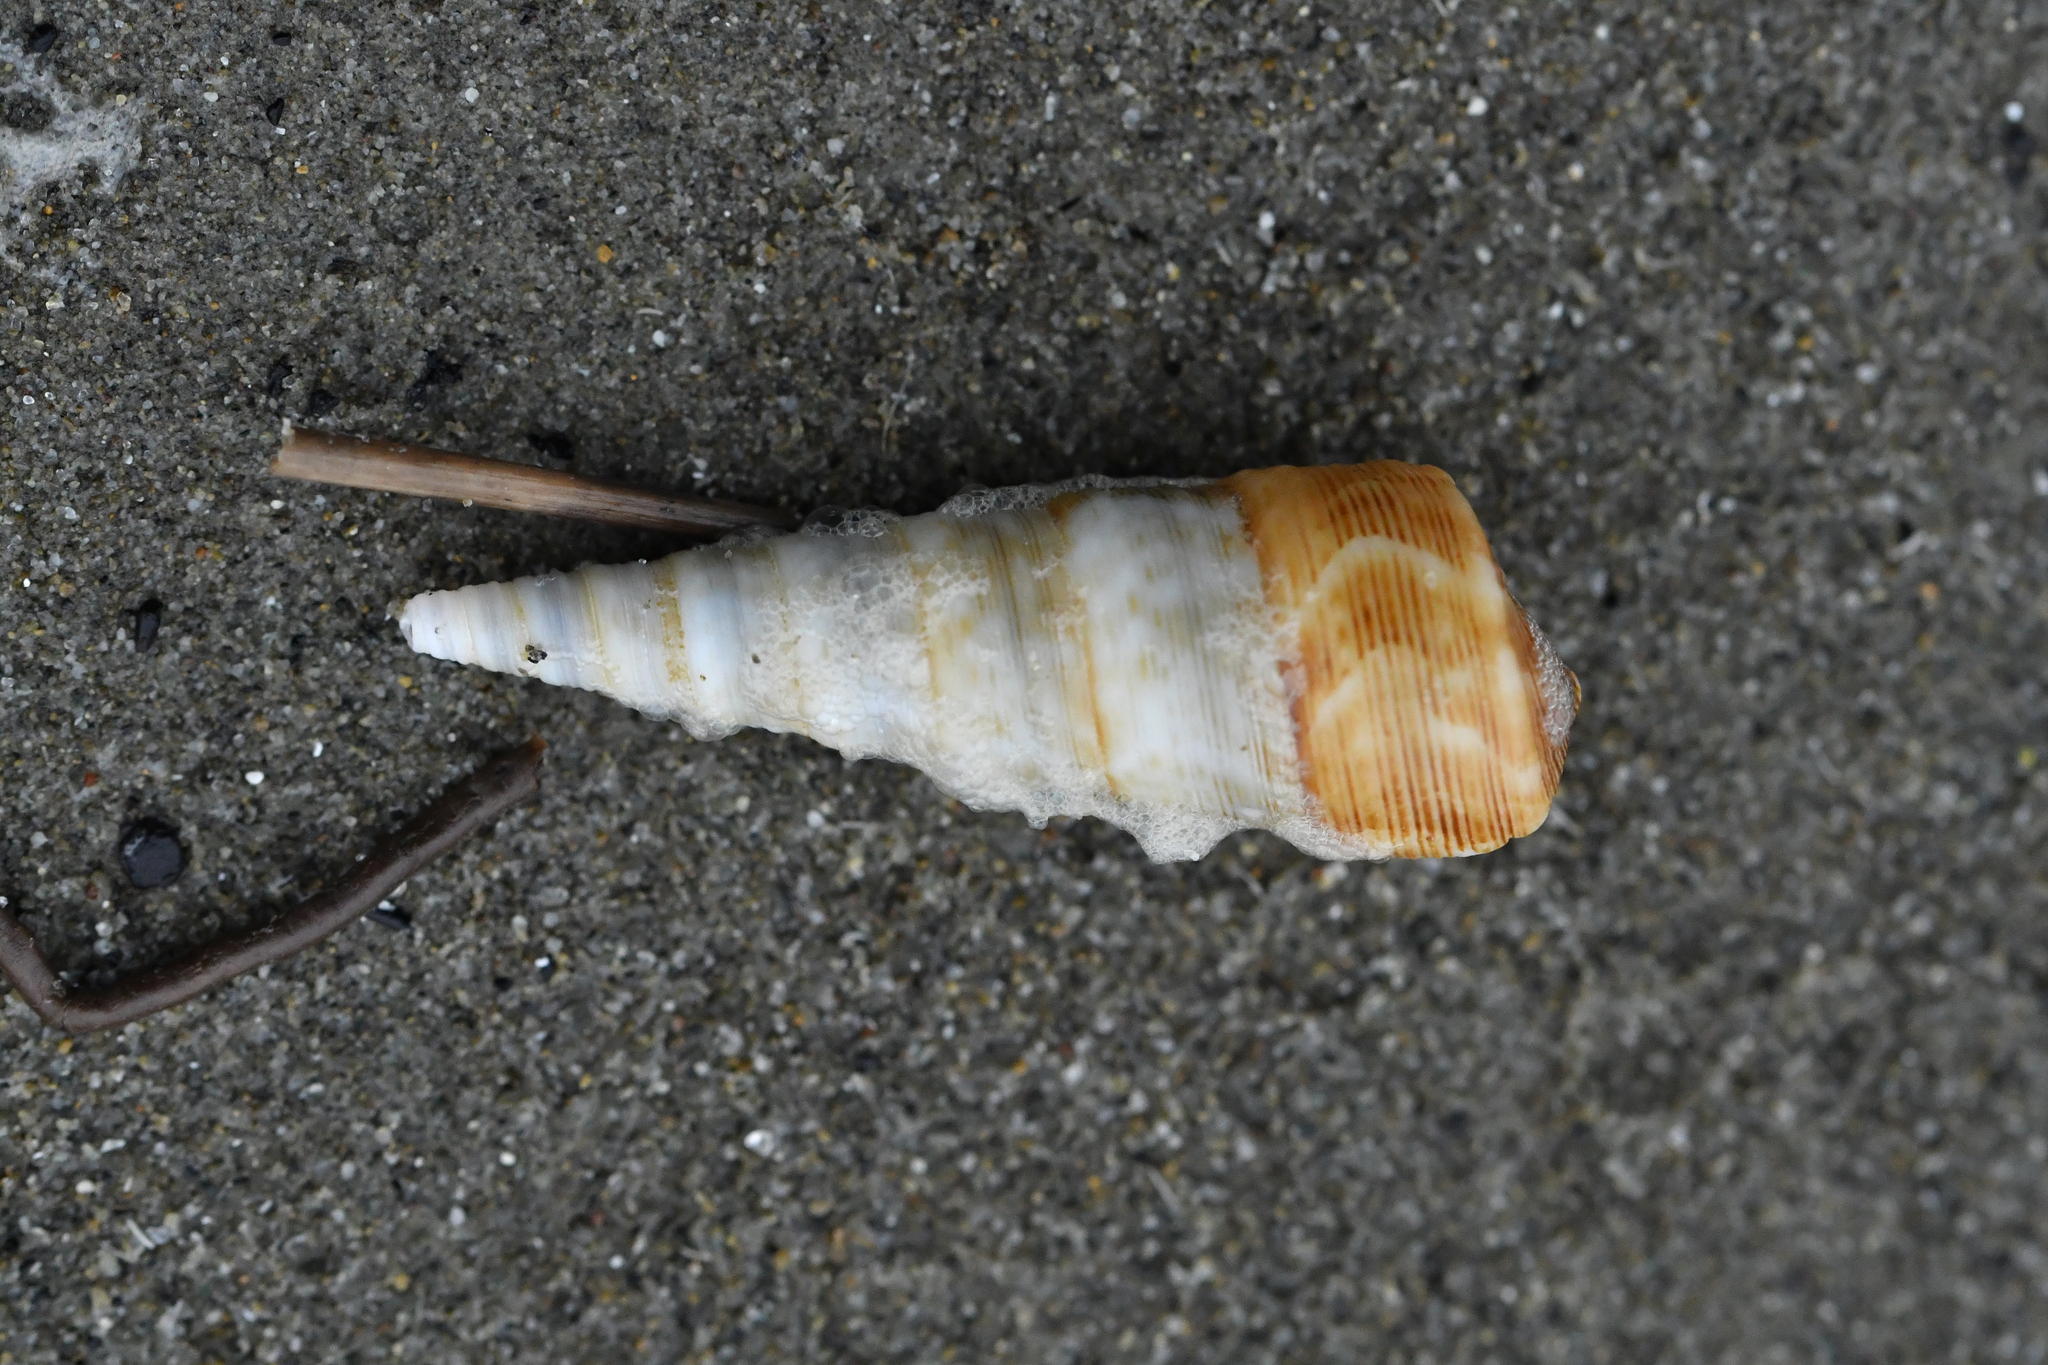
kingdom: Animalia
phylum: Mollusca
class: Gastropoda
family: Turritellidae
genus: Maoricolpus
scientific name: Maoricolpus roseus
